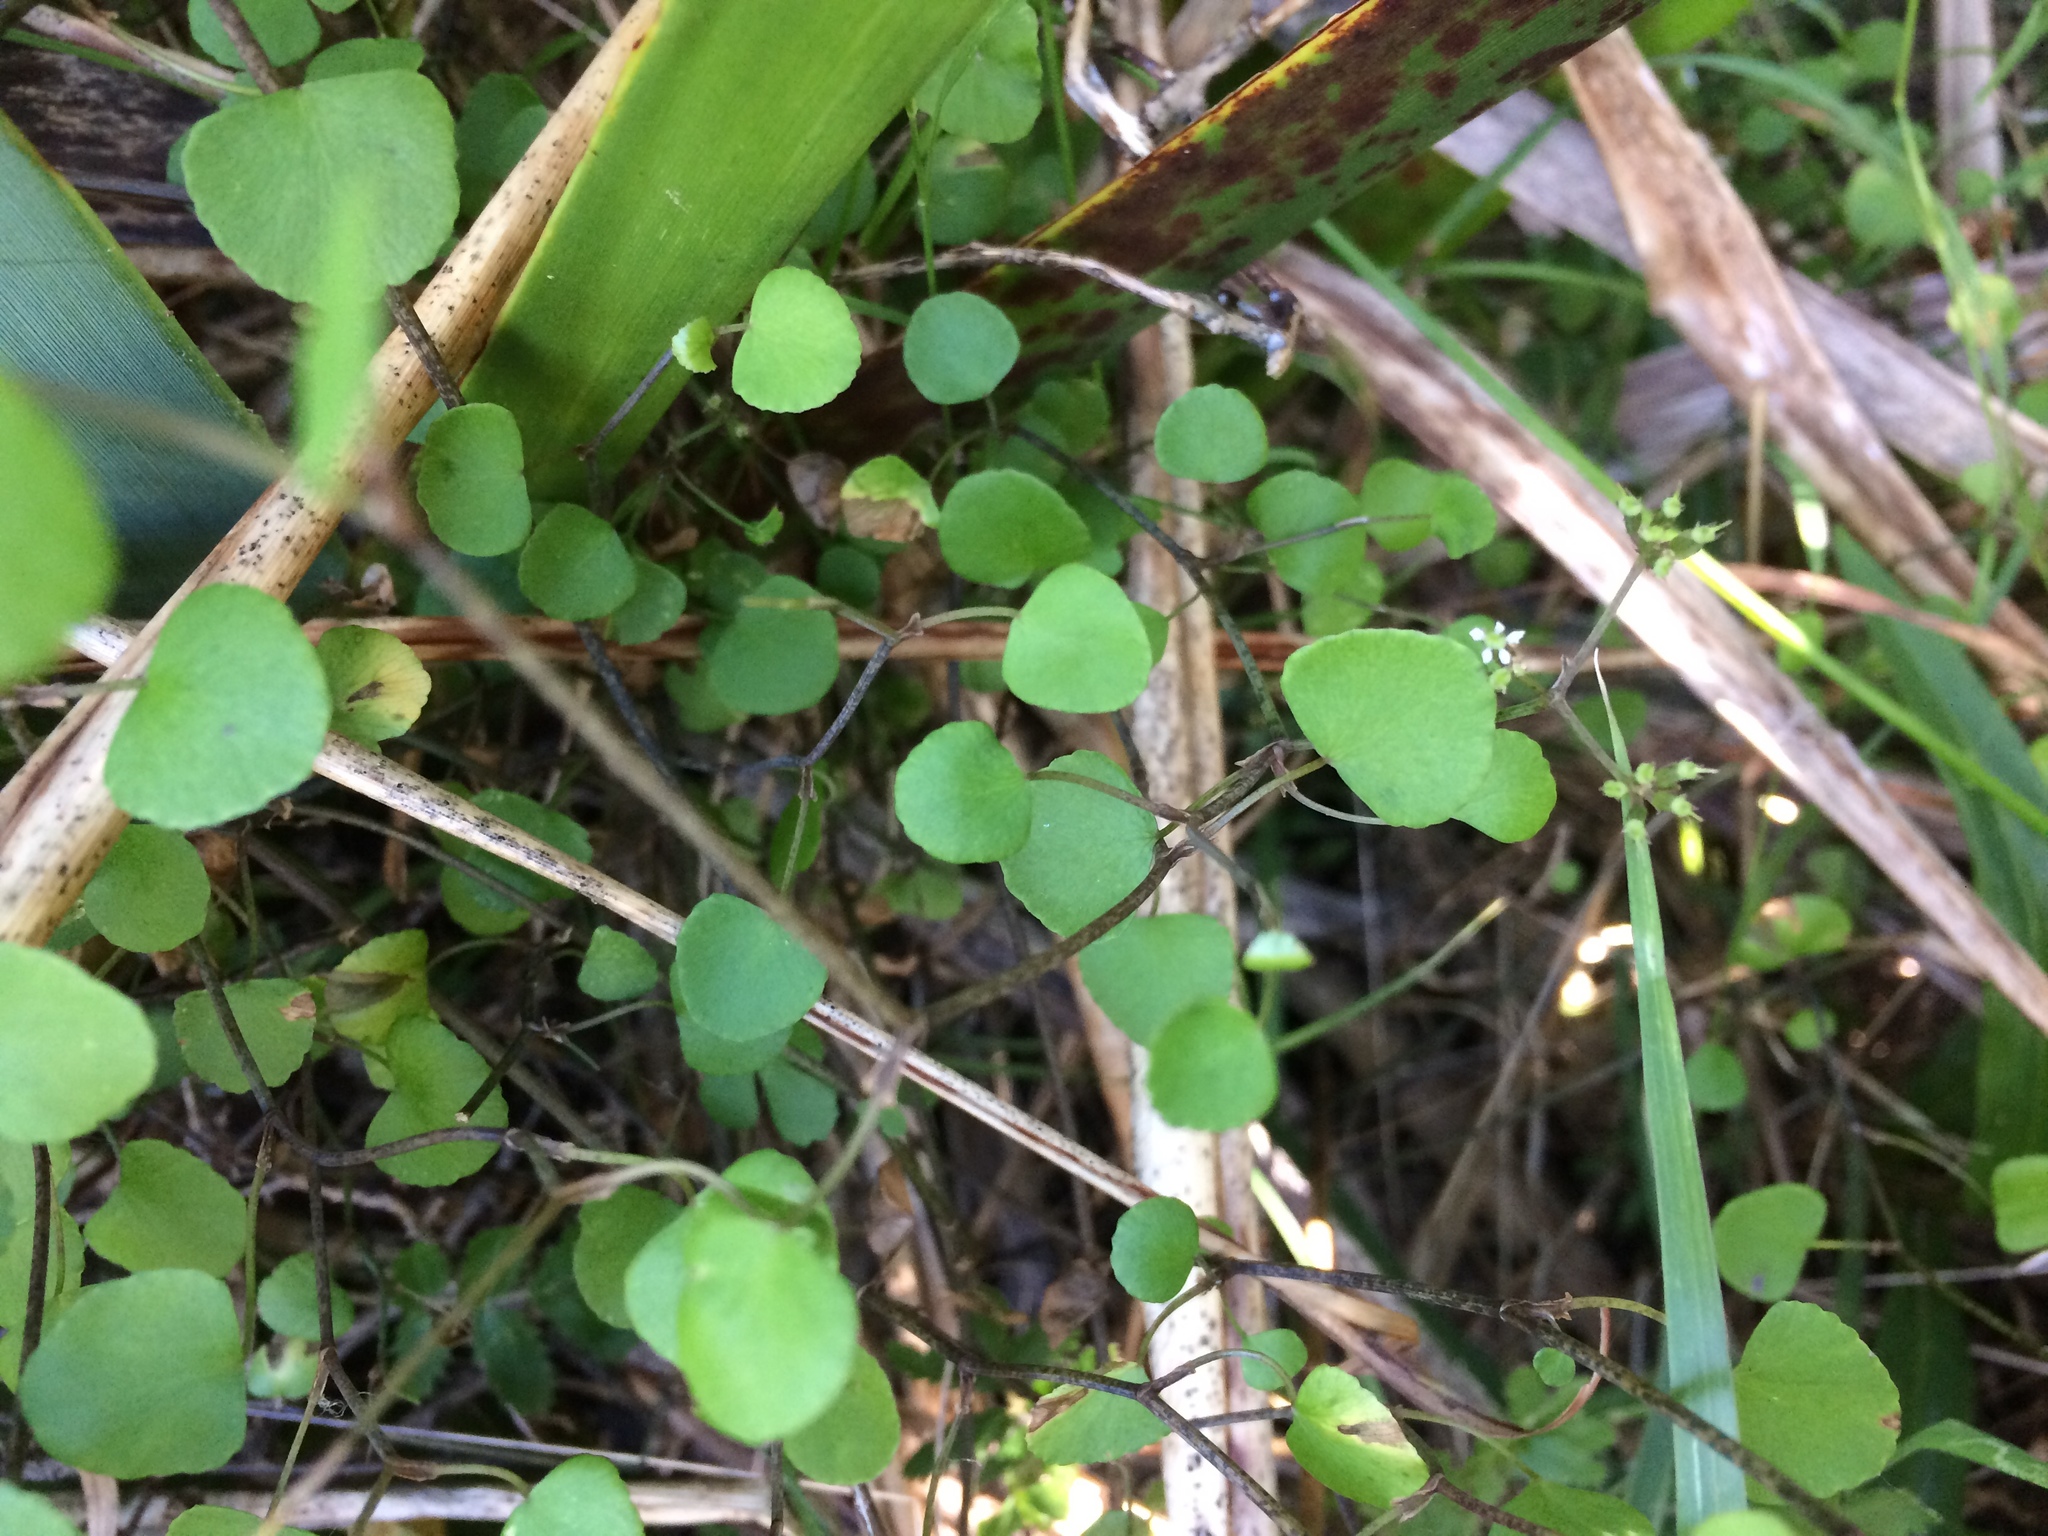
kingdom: Plantae
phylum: Tracheophyta
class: Magnoliopsida
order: Apiales
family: Apiaceae
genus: Scandia
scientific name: Scandia geniculata
